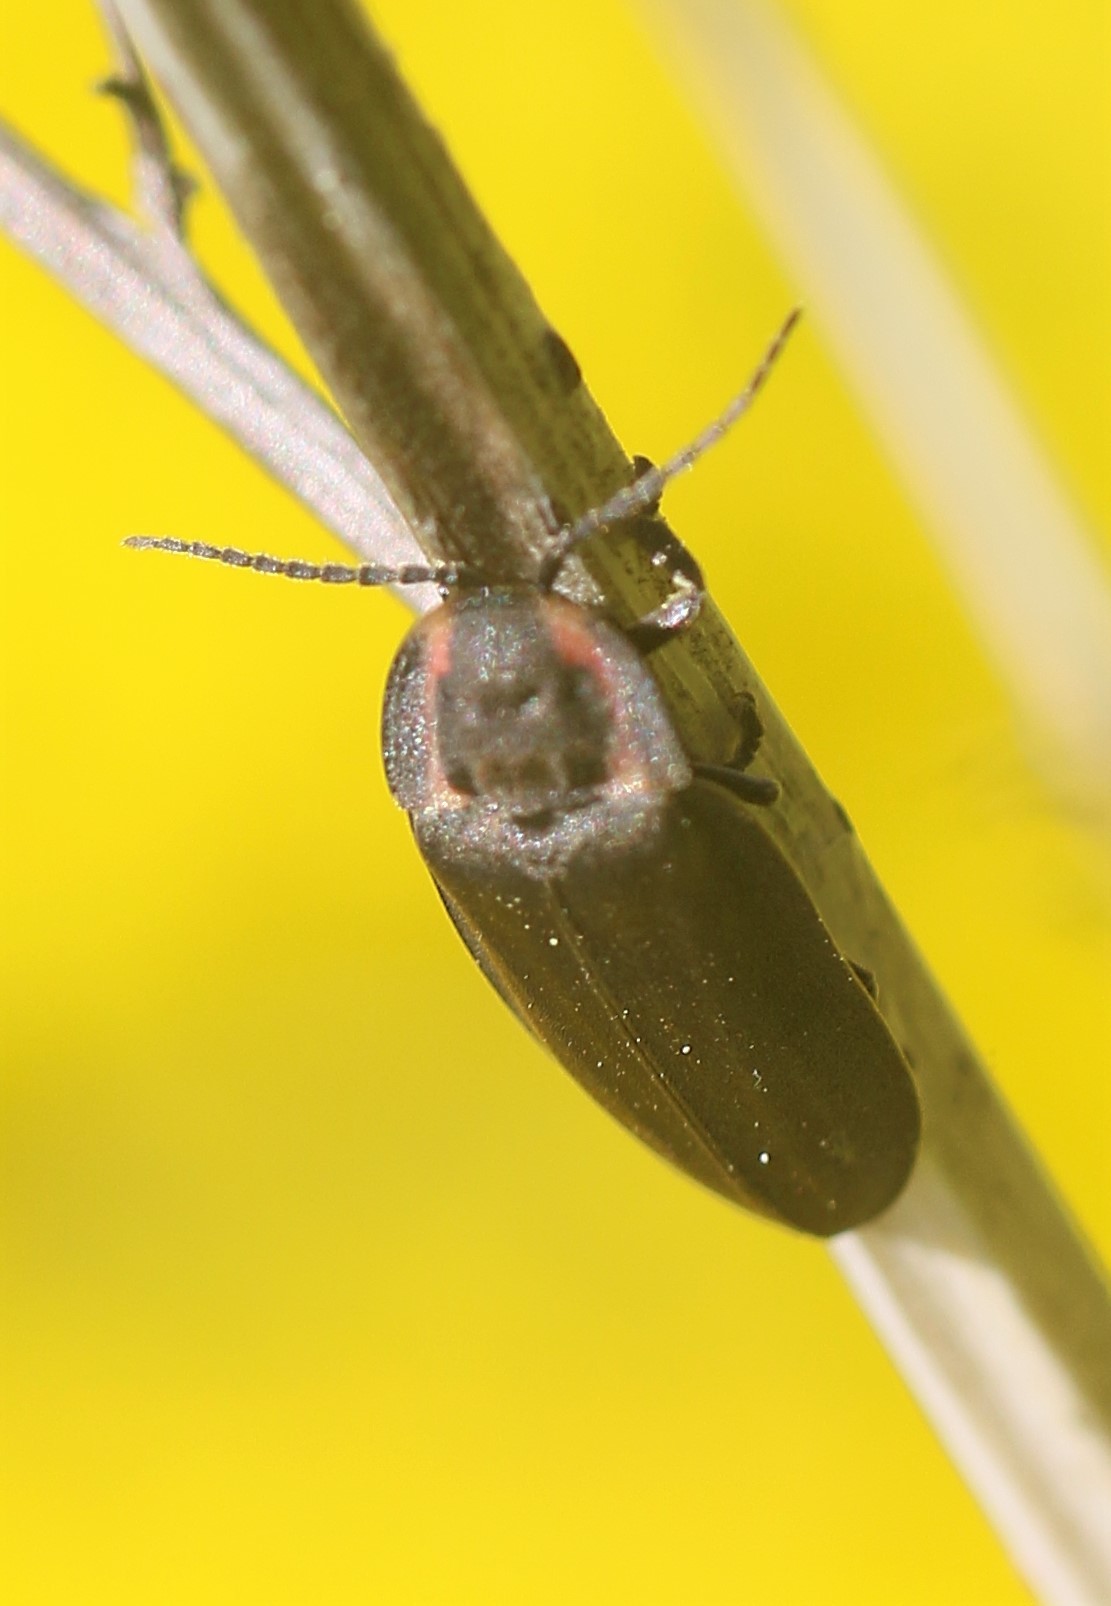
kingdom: Animalia
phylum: Arthropoda
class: Insecta
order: Coleoptera
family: Lampyridae
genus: Photinus
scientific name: Photinus corrusca
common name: Winter firefly
